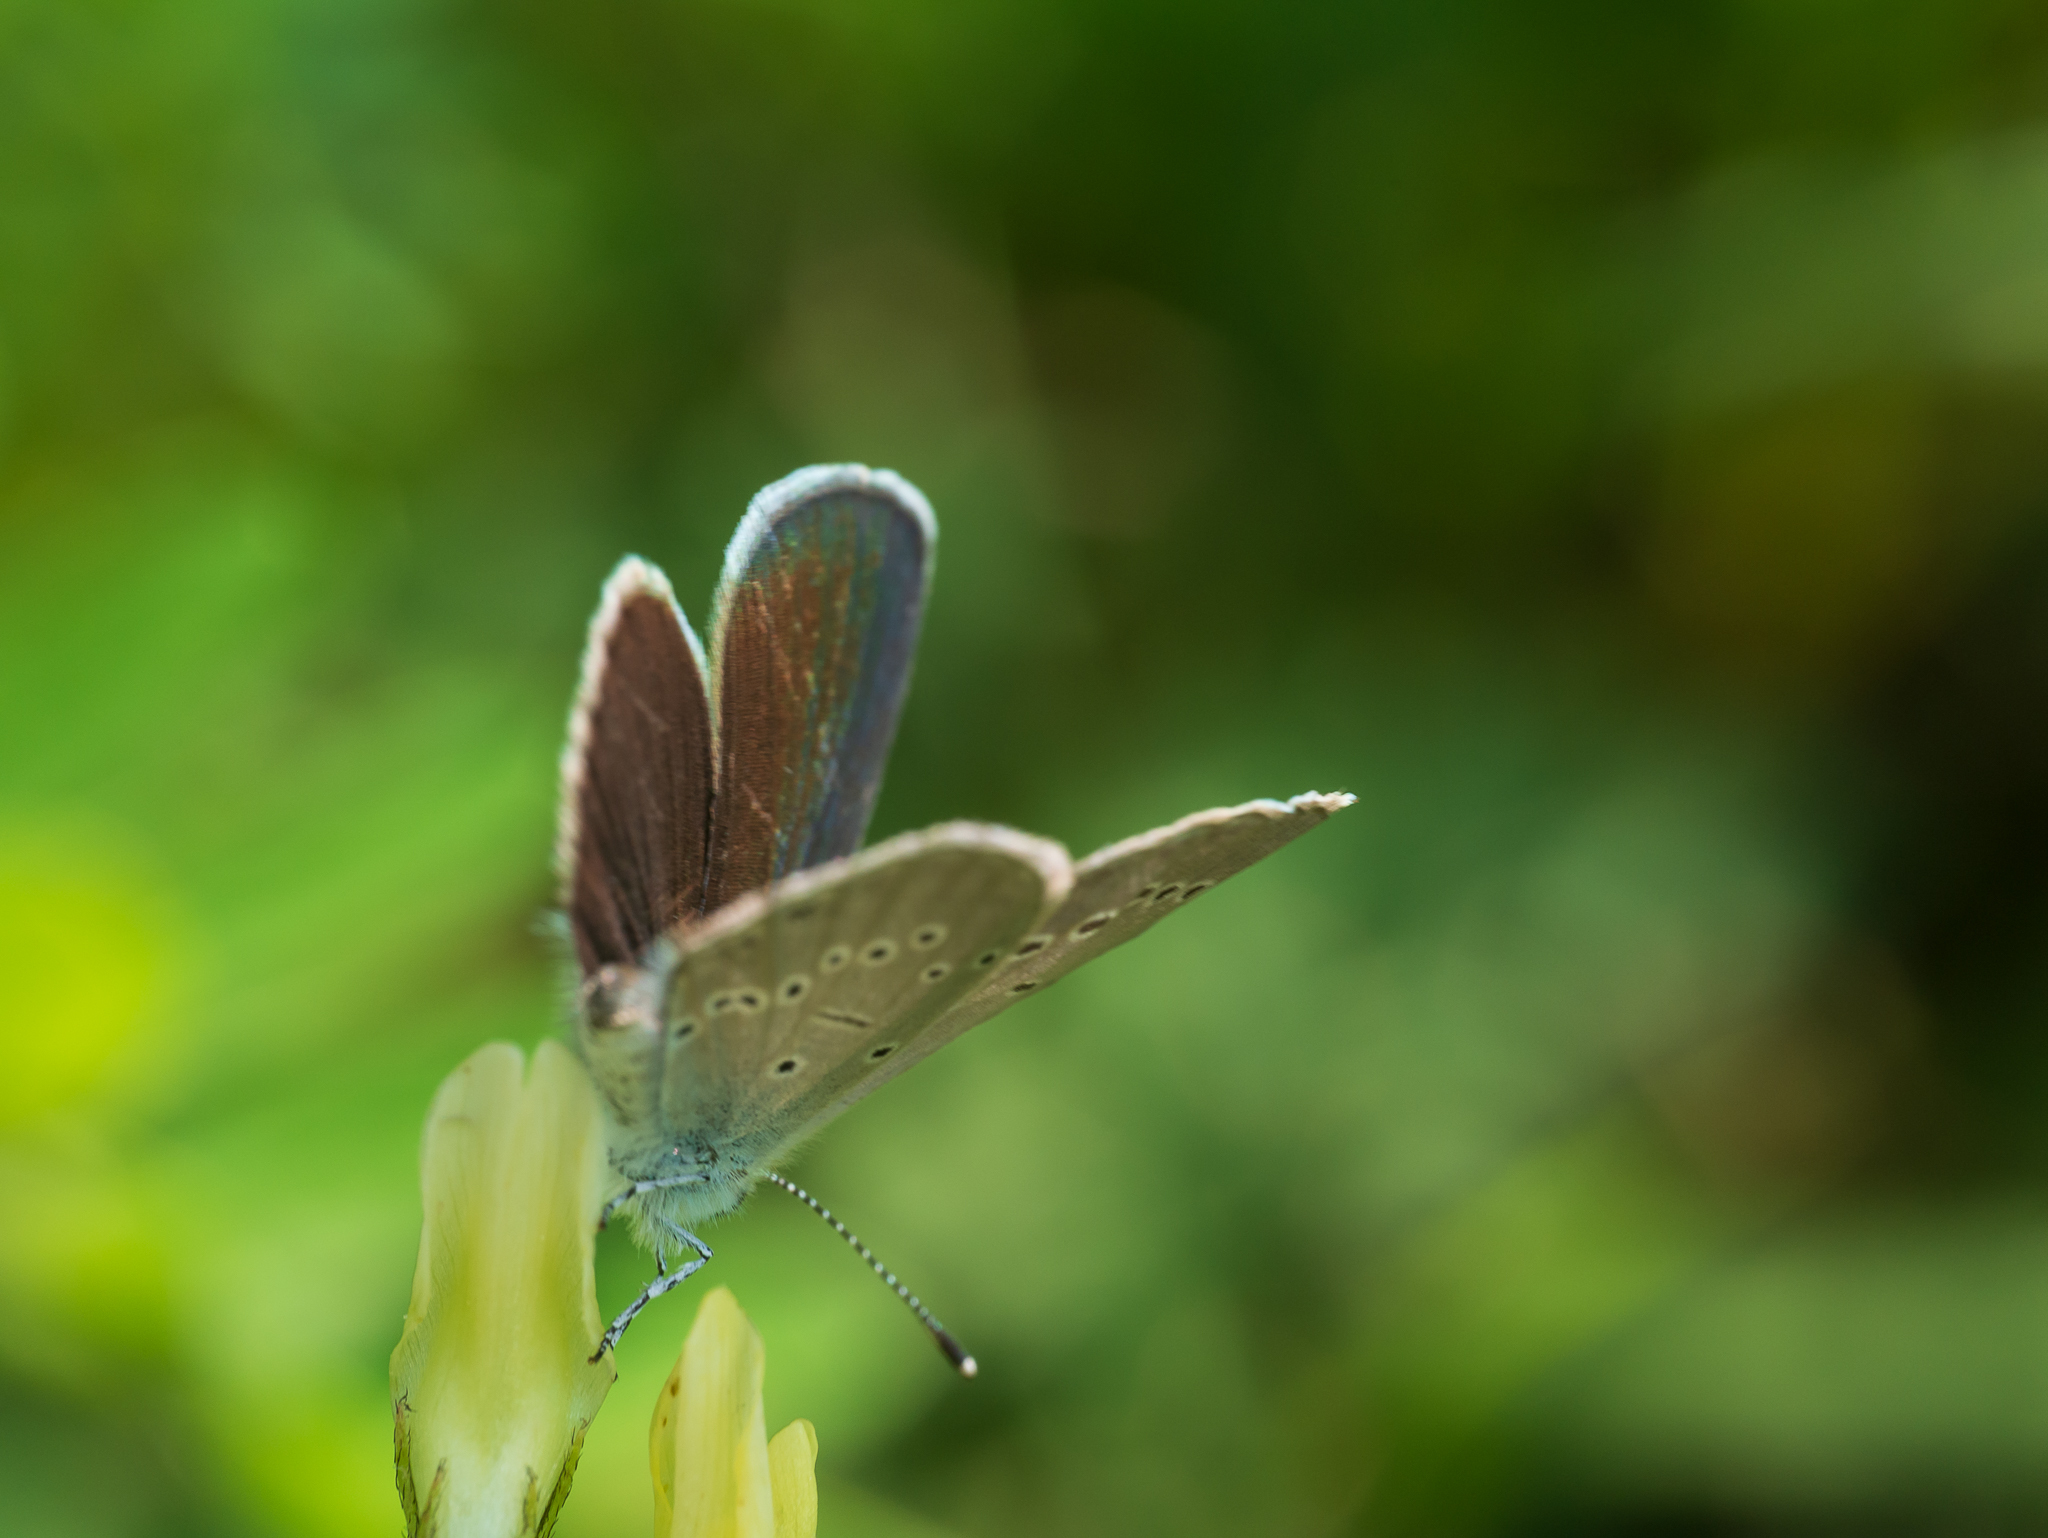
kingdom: Animalia
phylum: Arthropoda
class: Insecta
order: Lepidoptera
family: Lycaenidae
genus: Cyaniris
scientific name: Cyaniris semiargus
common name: Mazarine blue
